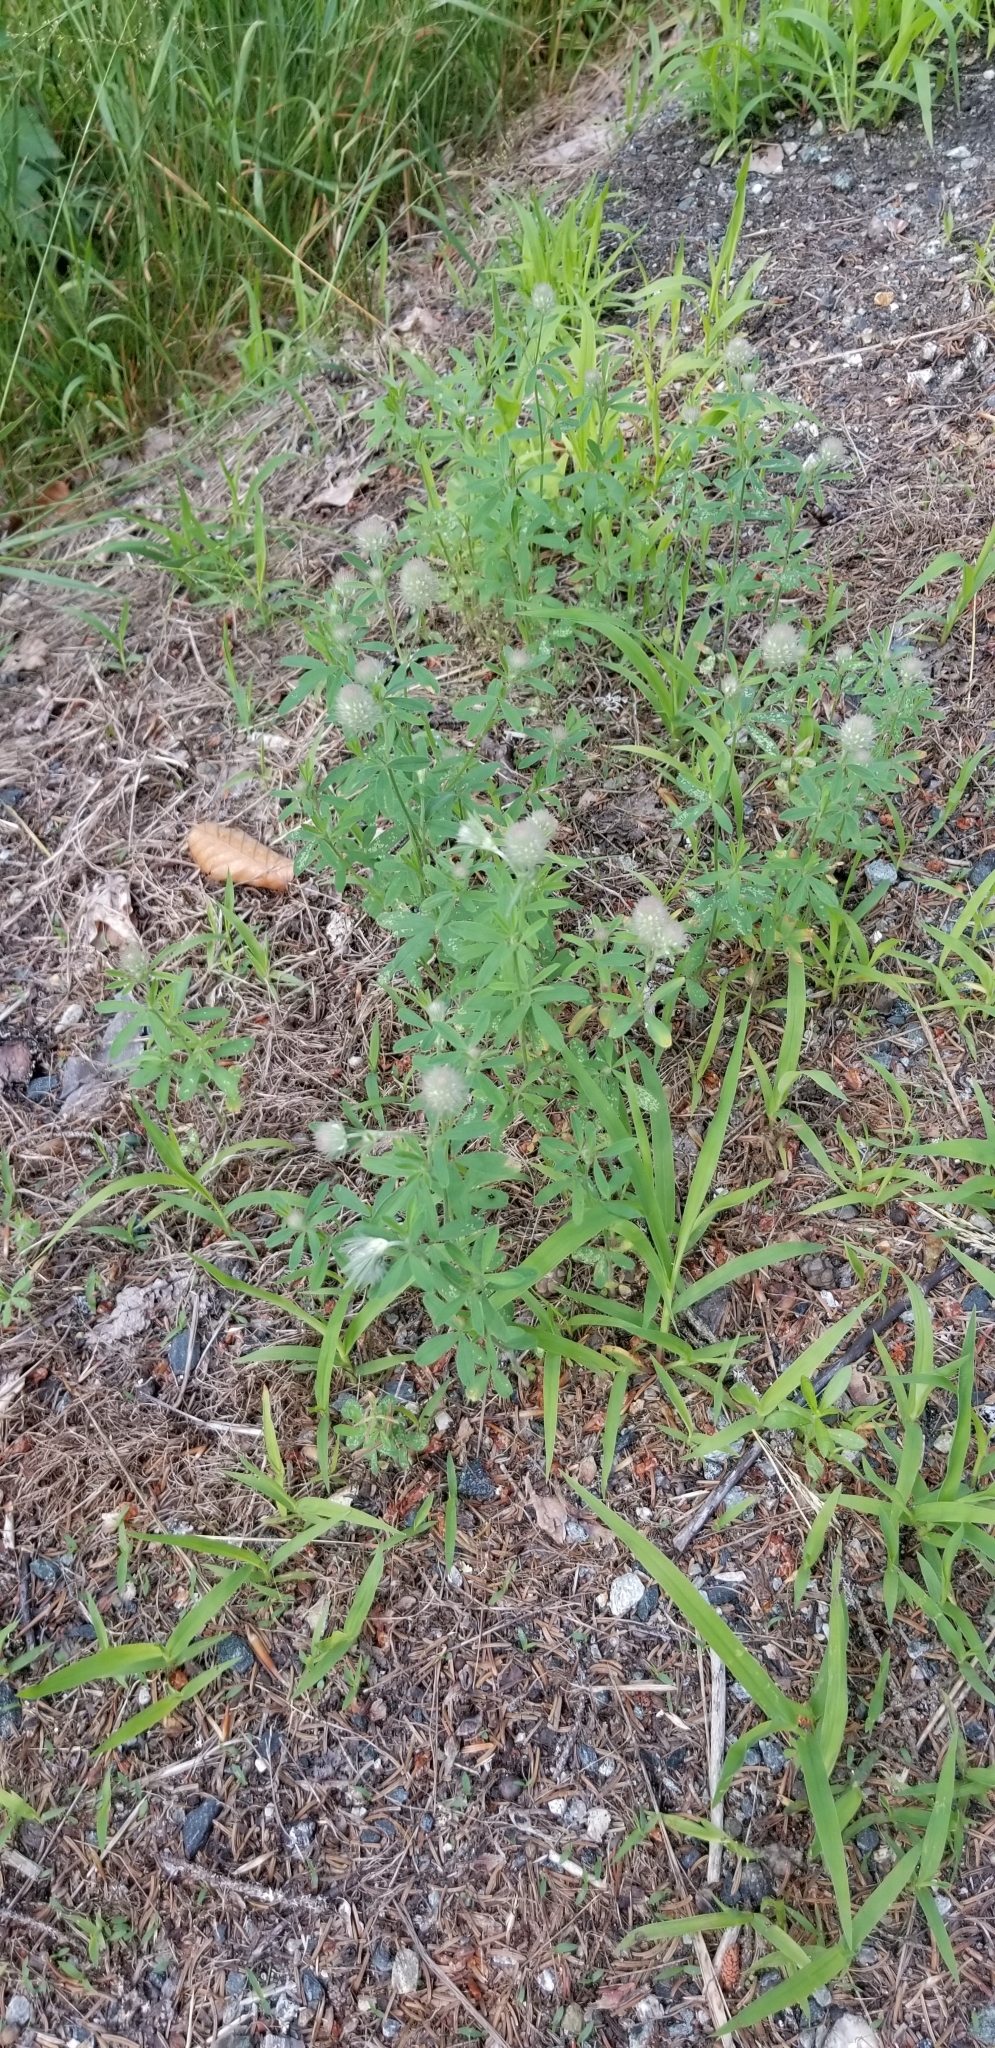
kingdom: Plantae
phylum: Tracheophyta
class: Magnoliopsida
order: Fabales
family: Fabaceae
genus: Trifolium
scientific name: Trifolium arvense
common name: Hare's-foot clover
